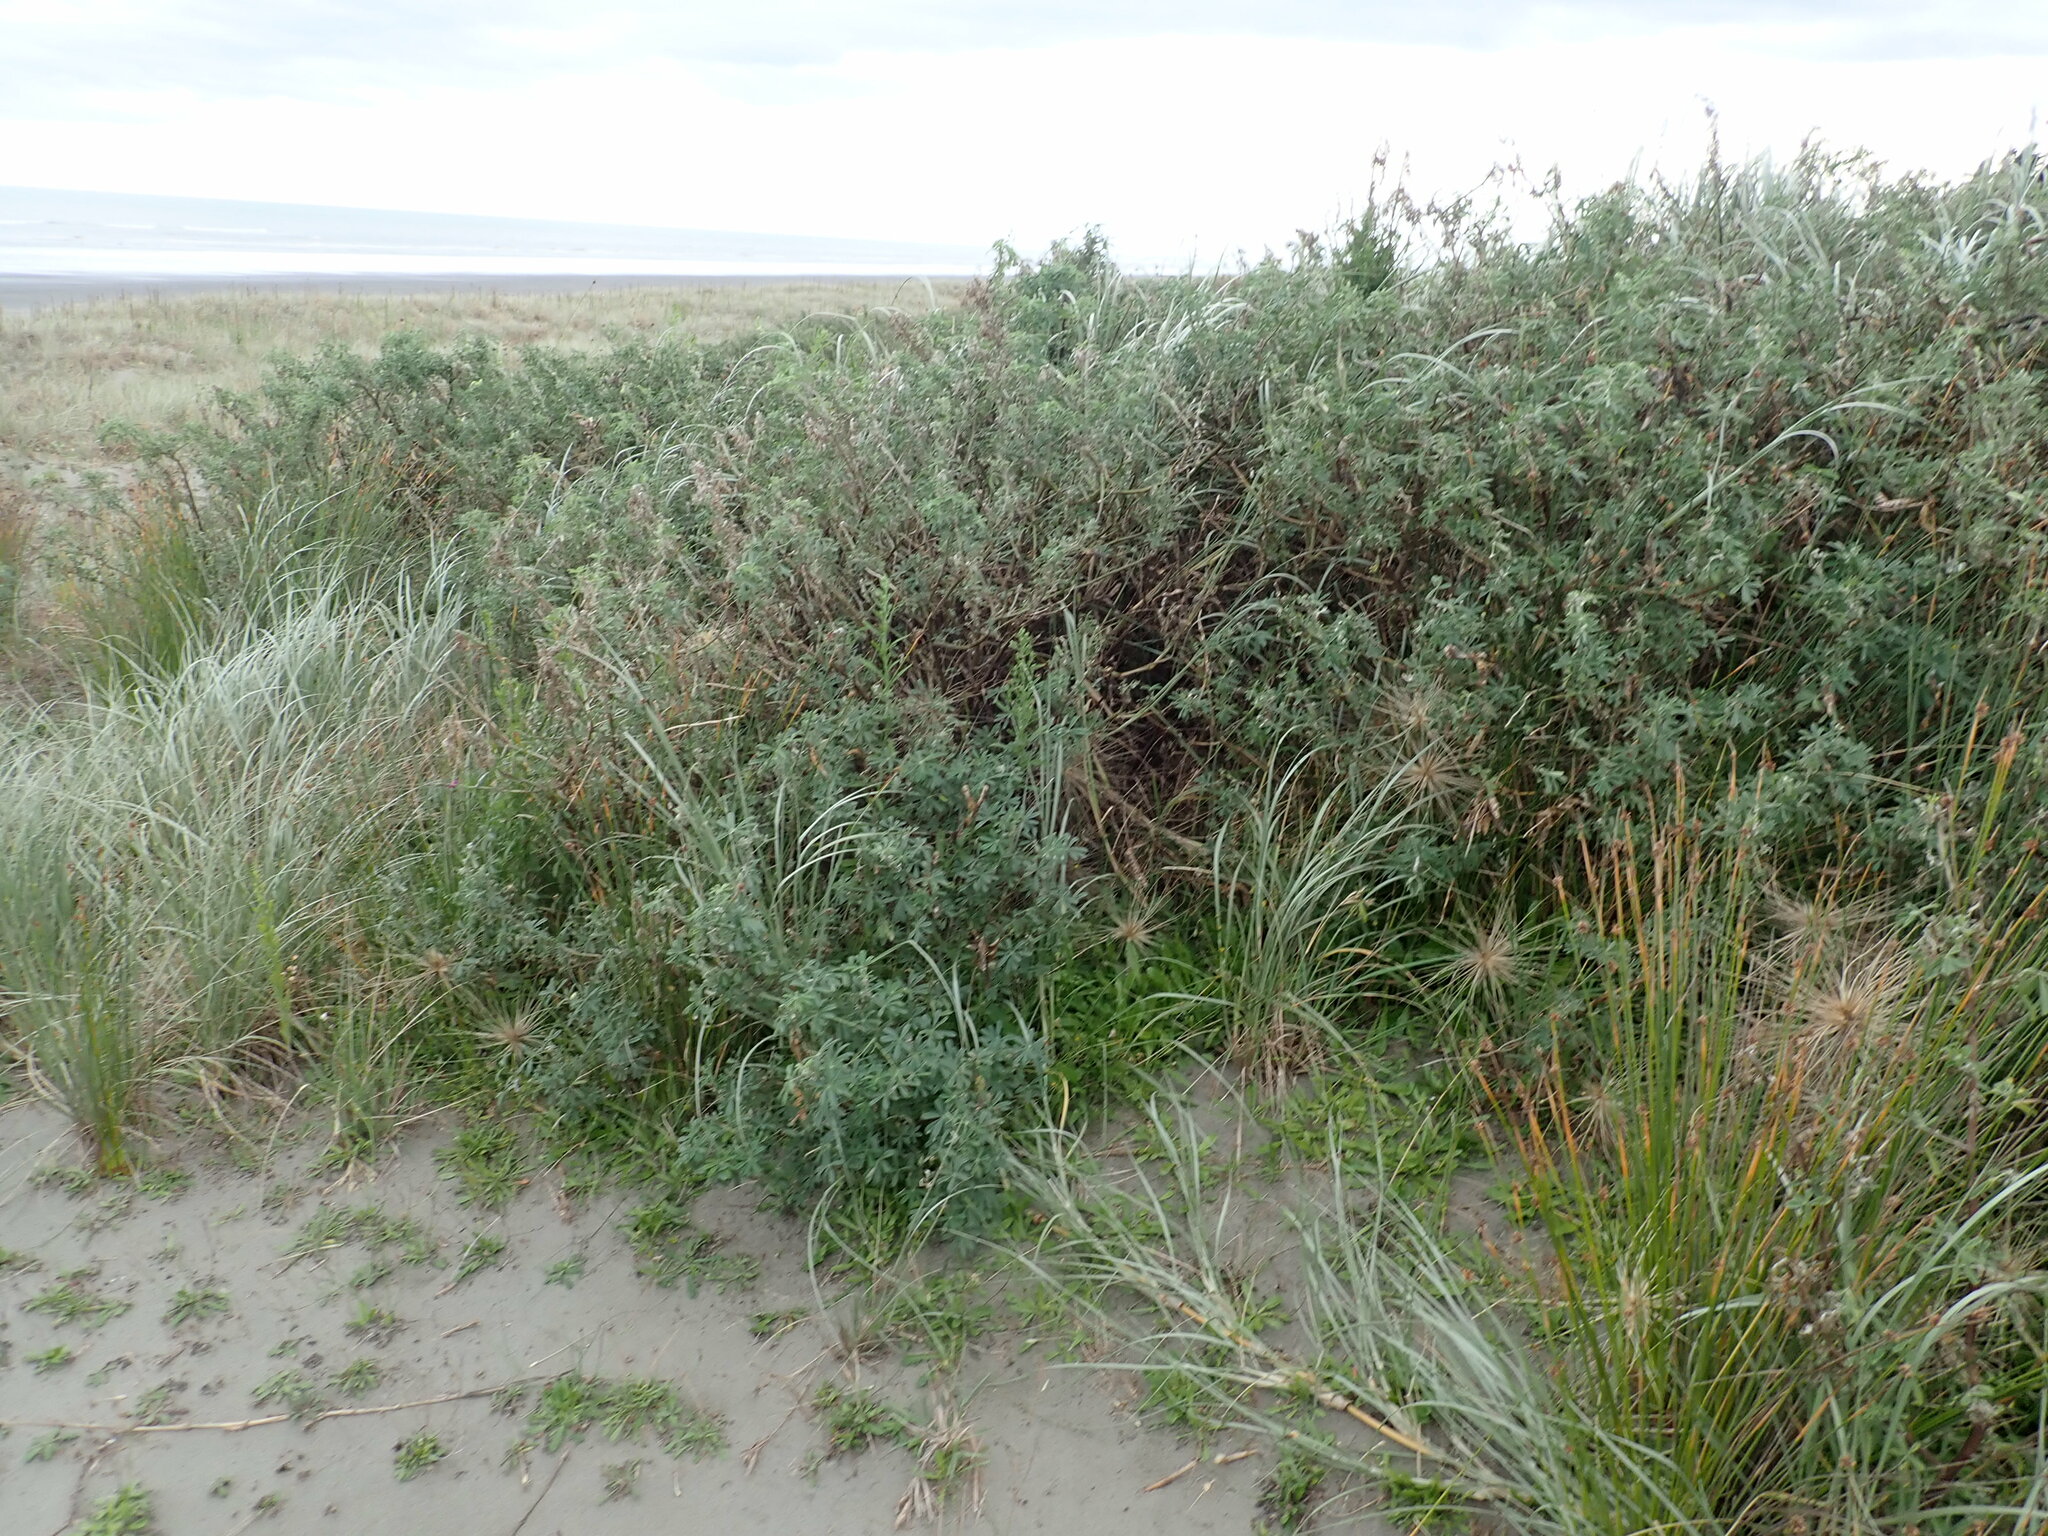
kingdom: Plantae
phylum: Tracheophyta
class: Magnoliopsida
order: Fabales
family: Fabaceae
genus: Lupinus
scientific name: Lupinus arboreus
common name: Yellow bush lupine
